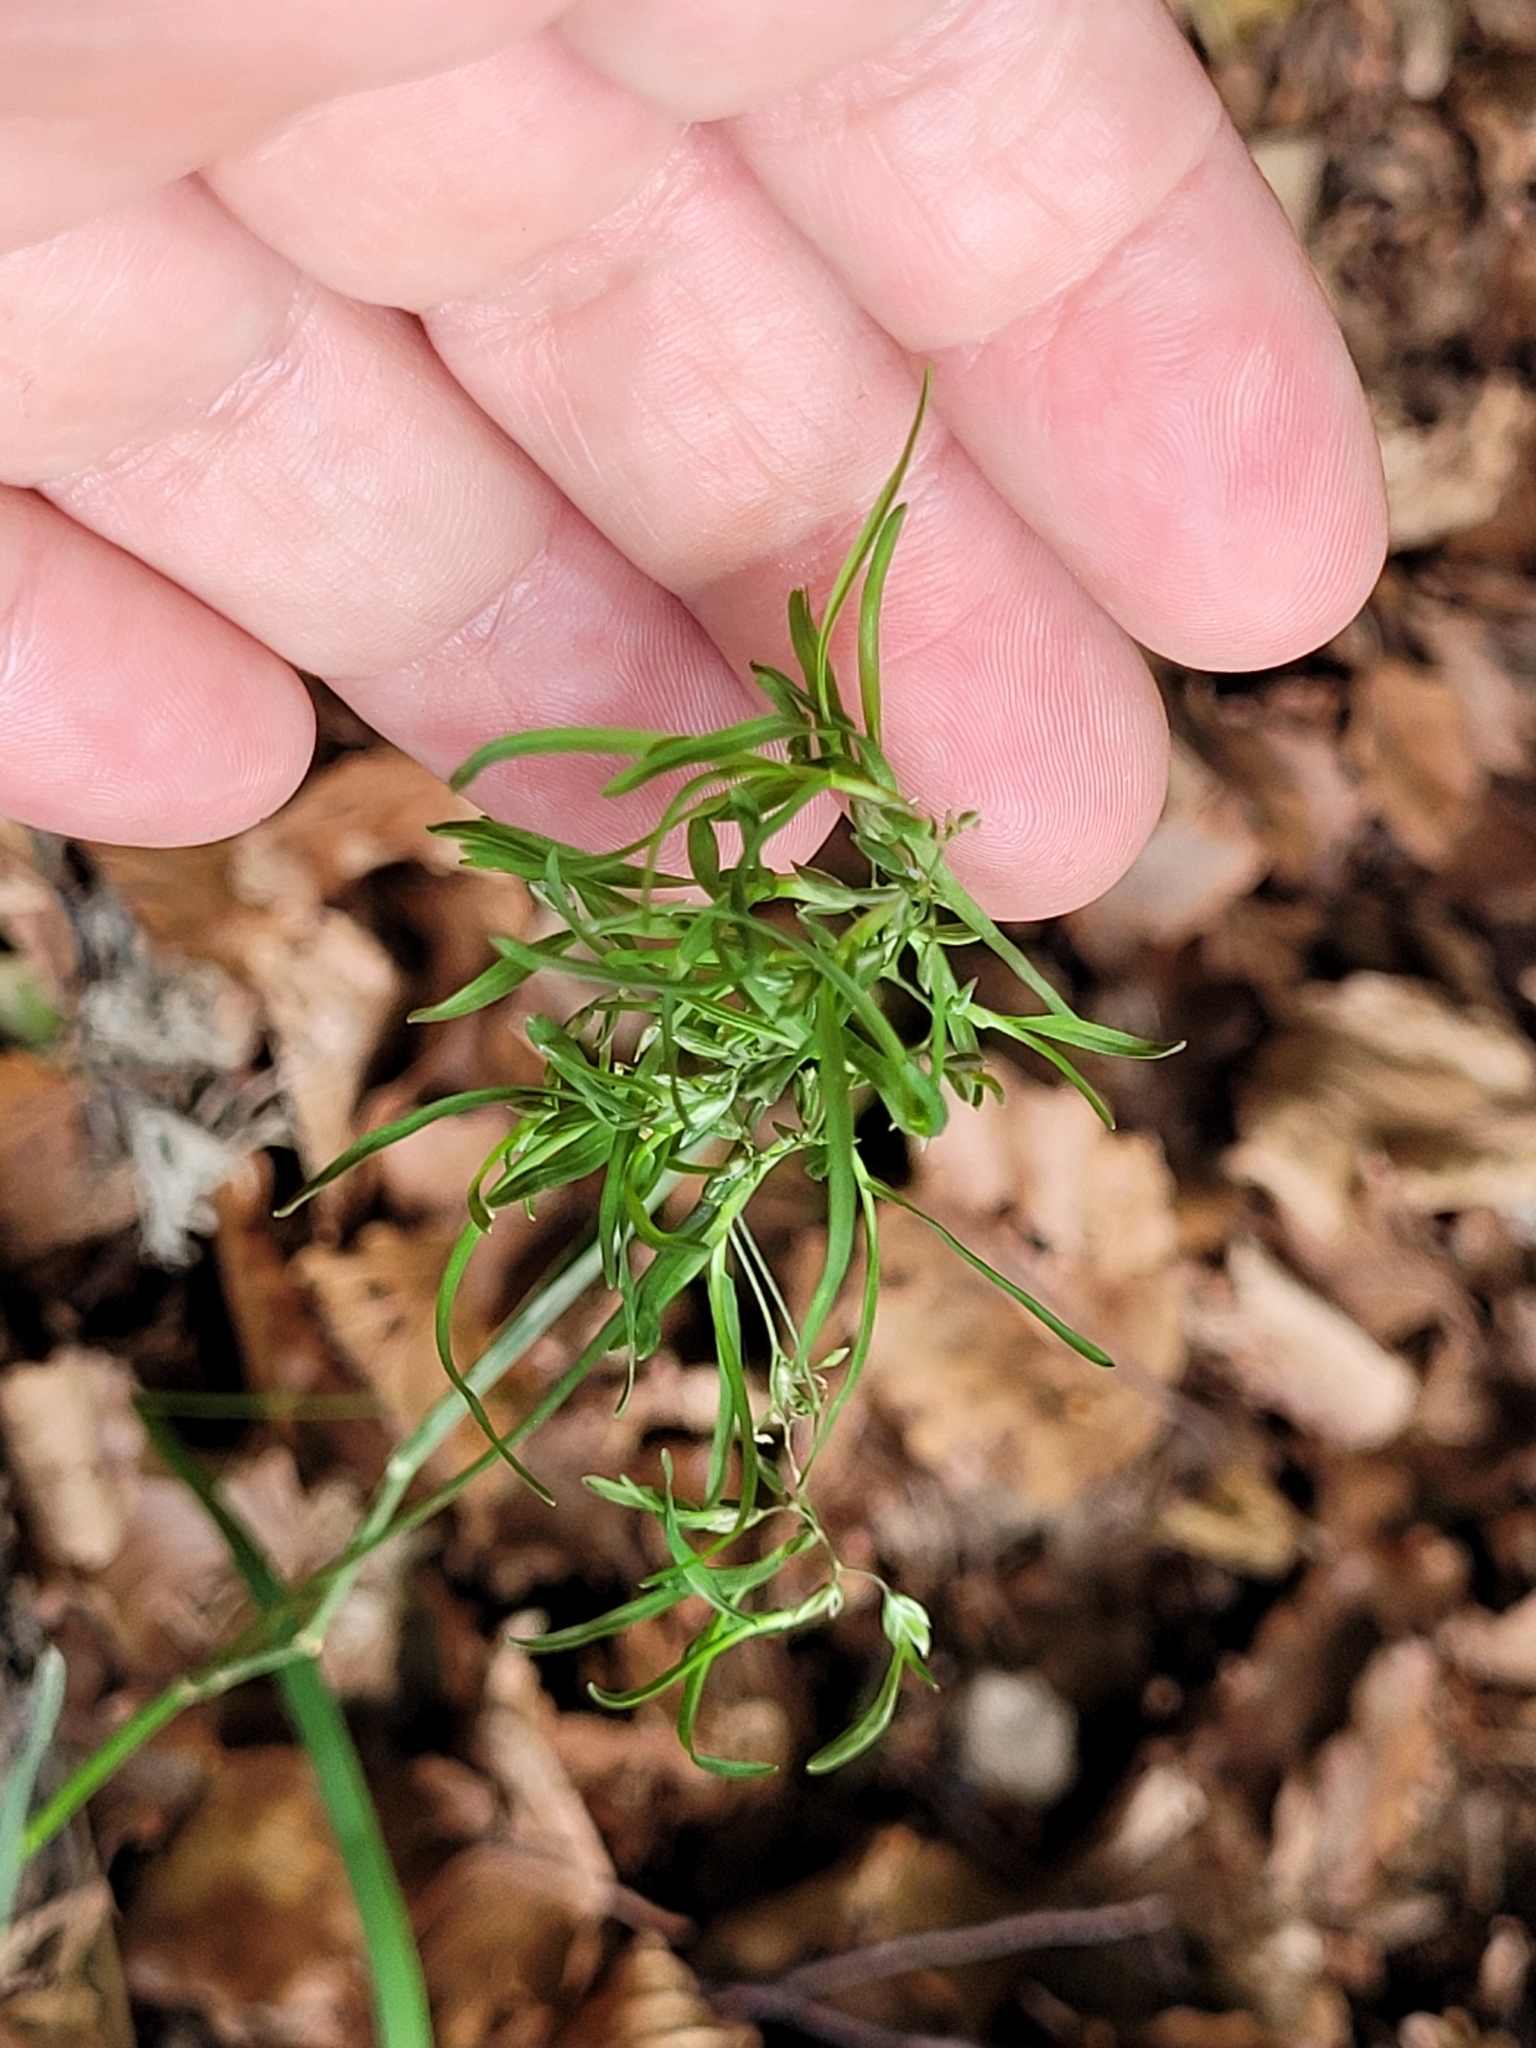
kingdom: Plantae
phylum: Tracheophyta
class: Liliopsida
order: Poales
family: Poaceae
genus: Poa
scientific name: Poa alpina
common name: Alpine bluegrass
